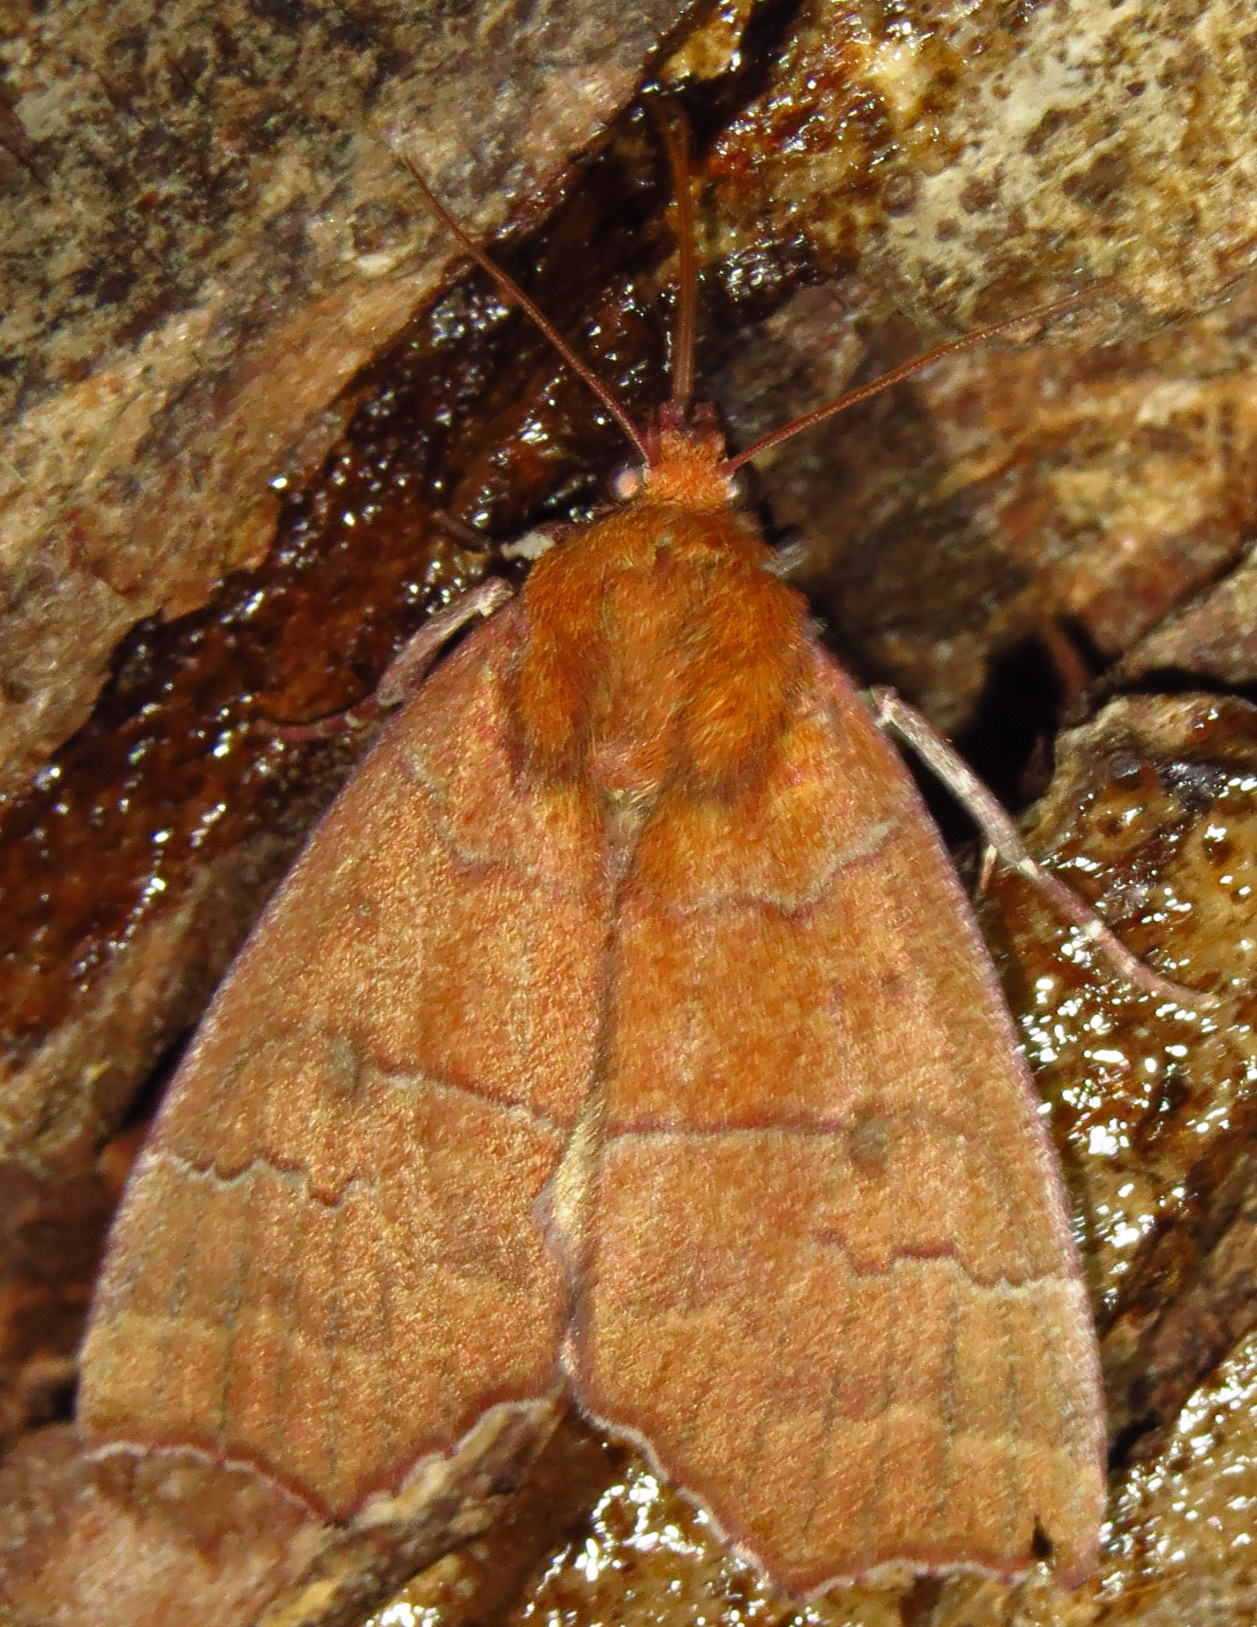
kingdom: Animalia
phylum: Arthropoda
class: Insecta
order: Lepidoptera
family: Erebidae
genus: Rusicada
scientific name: Rusicada privata
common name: Hibiscus leaf caterpillar moth
